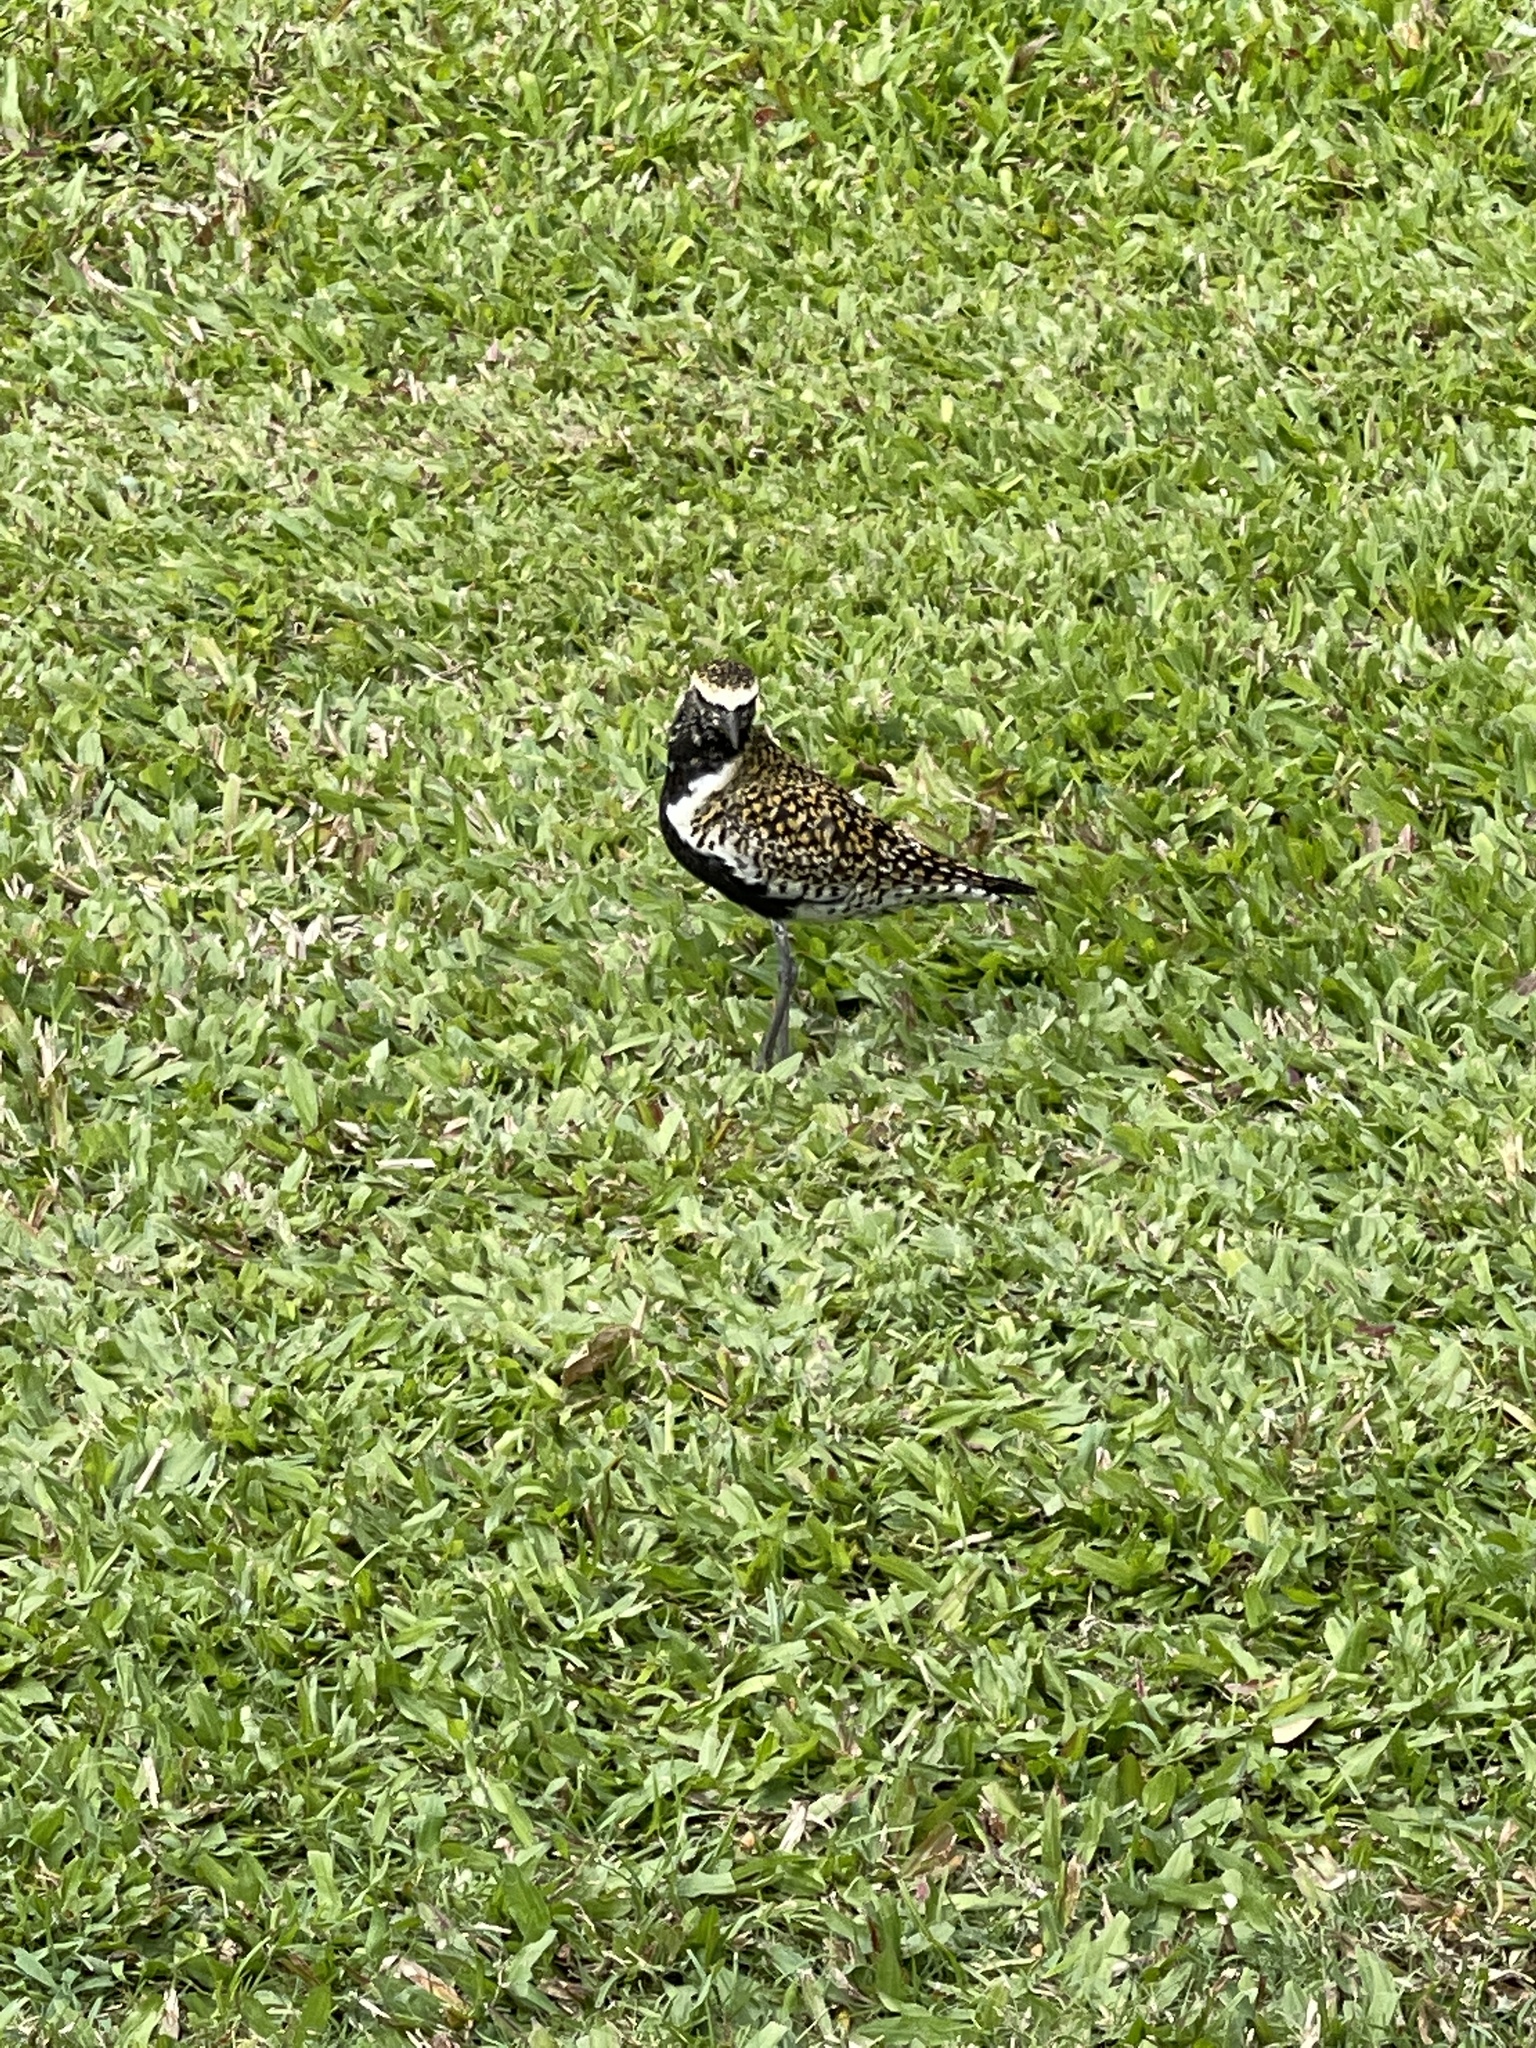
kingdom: Animalia
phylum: Chordata
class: Aves
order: Charadriiformes
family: Charadriidae
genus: Pluvialis
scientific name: Pluvialis fulva
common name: Pacific golden plover
